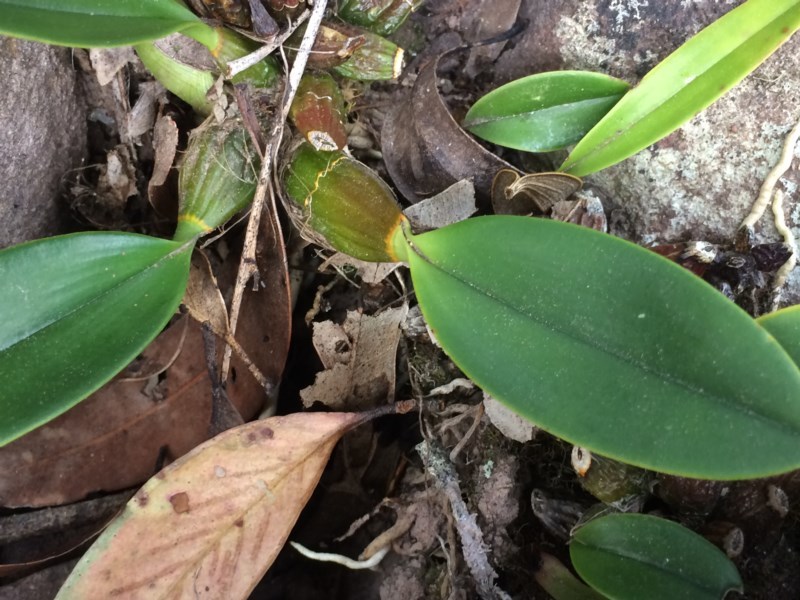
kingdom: Plantae
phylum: Tracheophyta
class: Liliopsida
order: Asparagales
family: Orchidaceae
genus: Dendrobium
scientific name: Dendrobium speciosum
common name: Rock-lily
